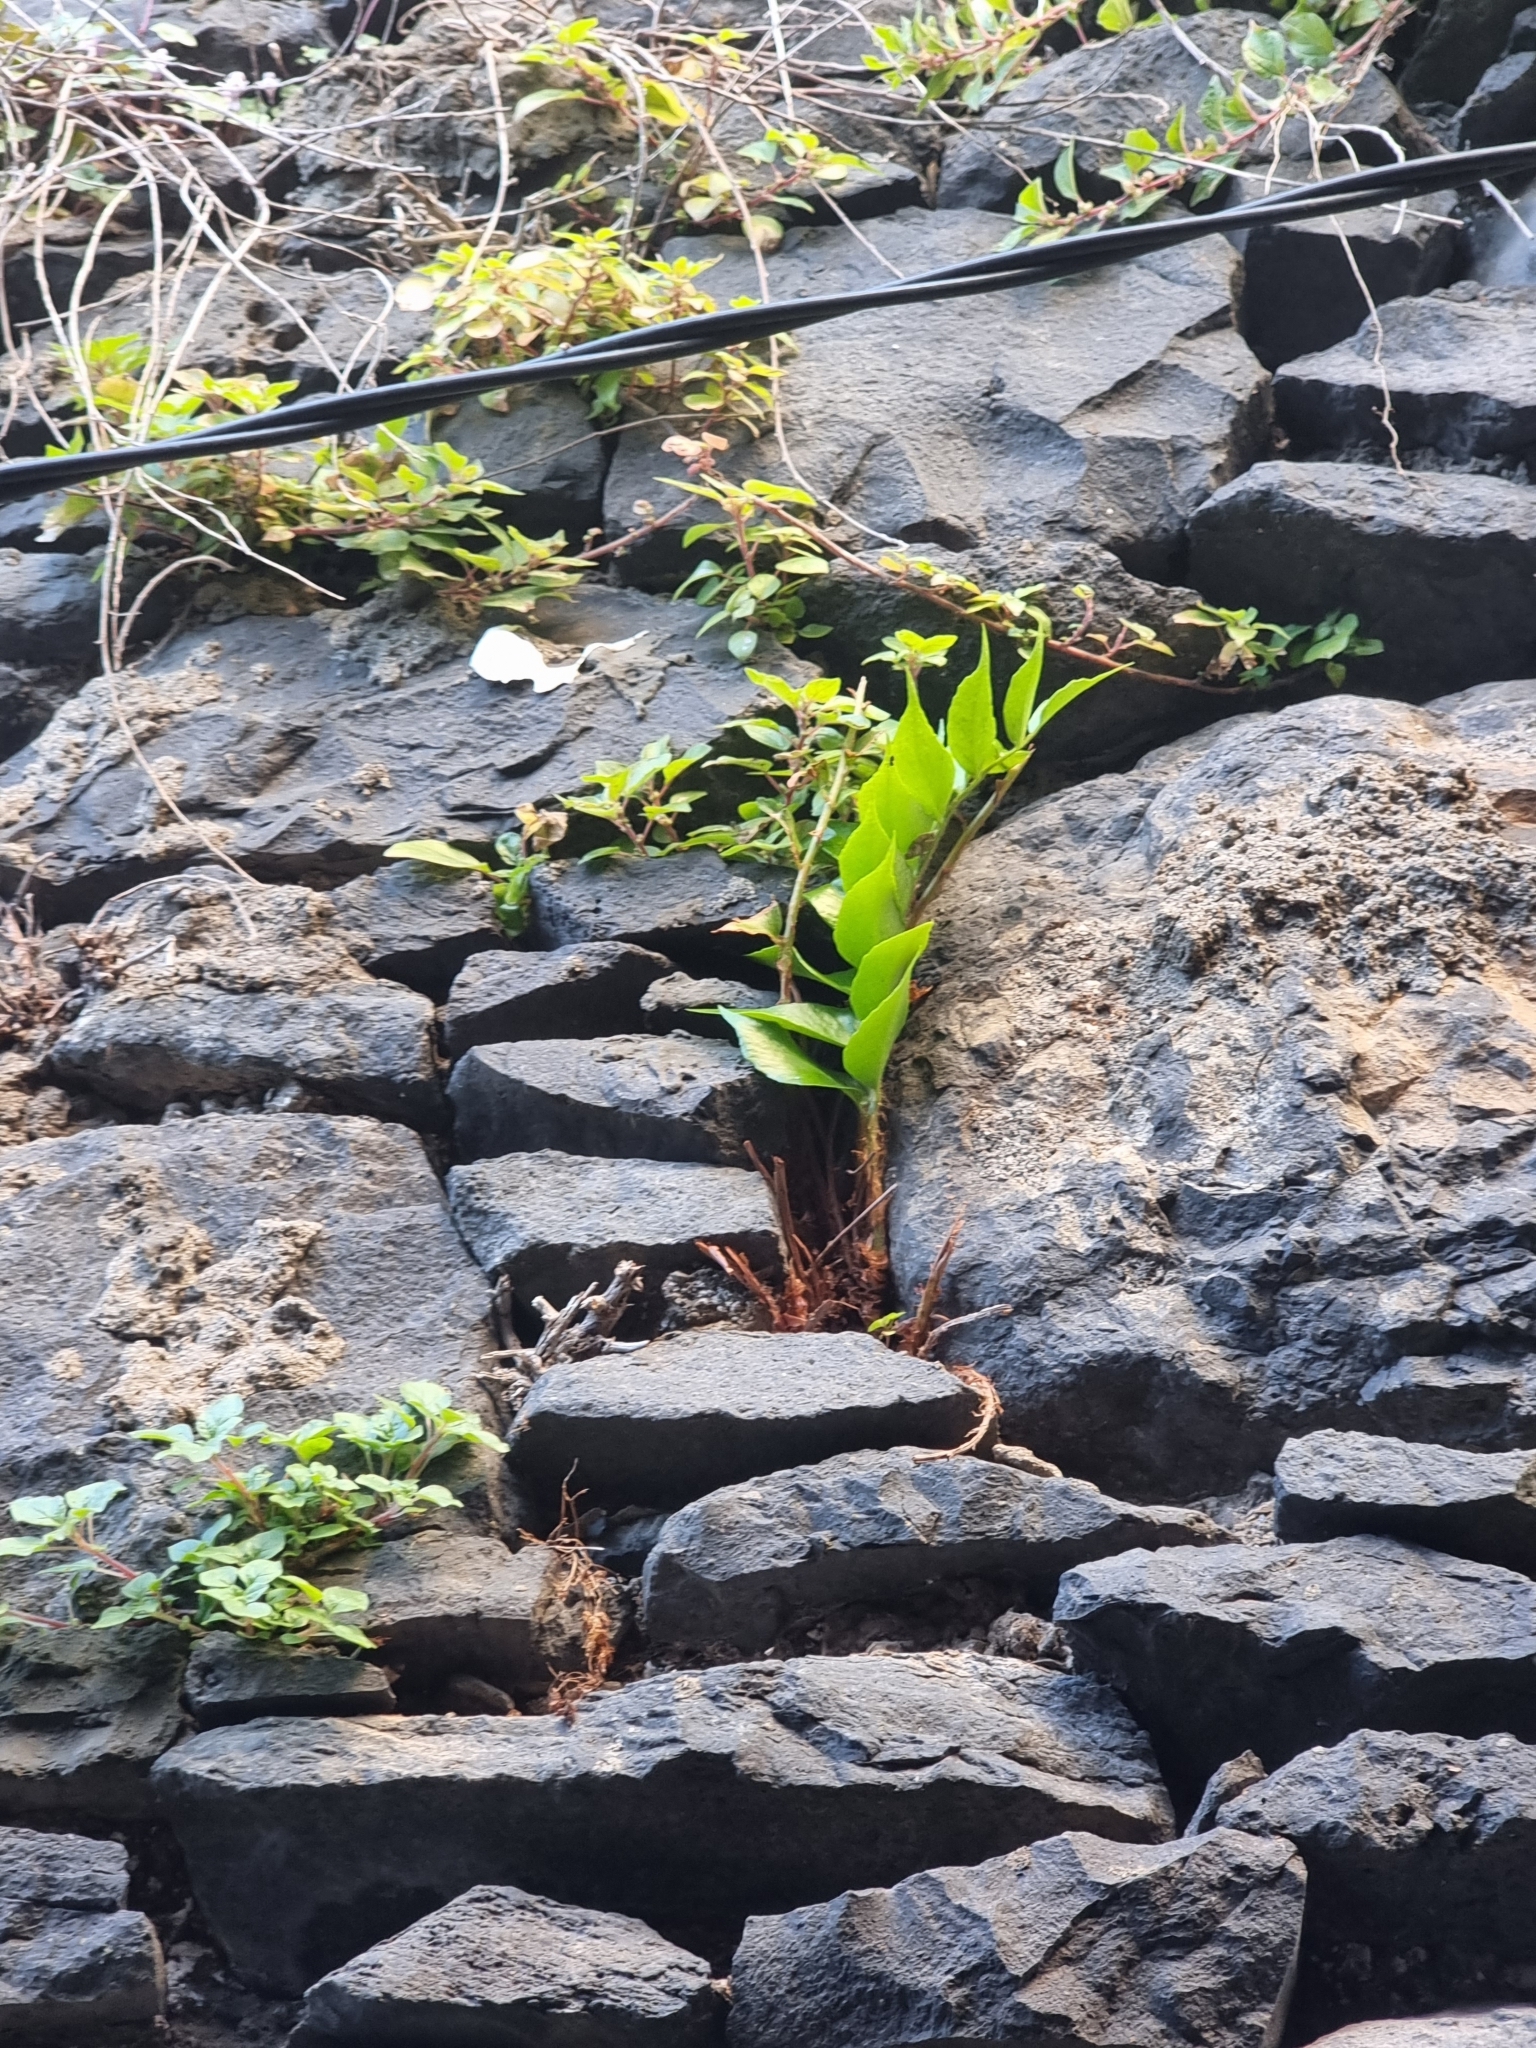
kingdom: Plantae
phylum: Tracheophyta
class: Polypodiopsida
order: Polypodiales
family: Dryopteridaceae
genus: Cyrtomium
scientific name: Cyrtomium falcatum
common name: House holly-fern
